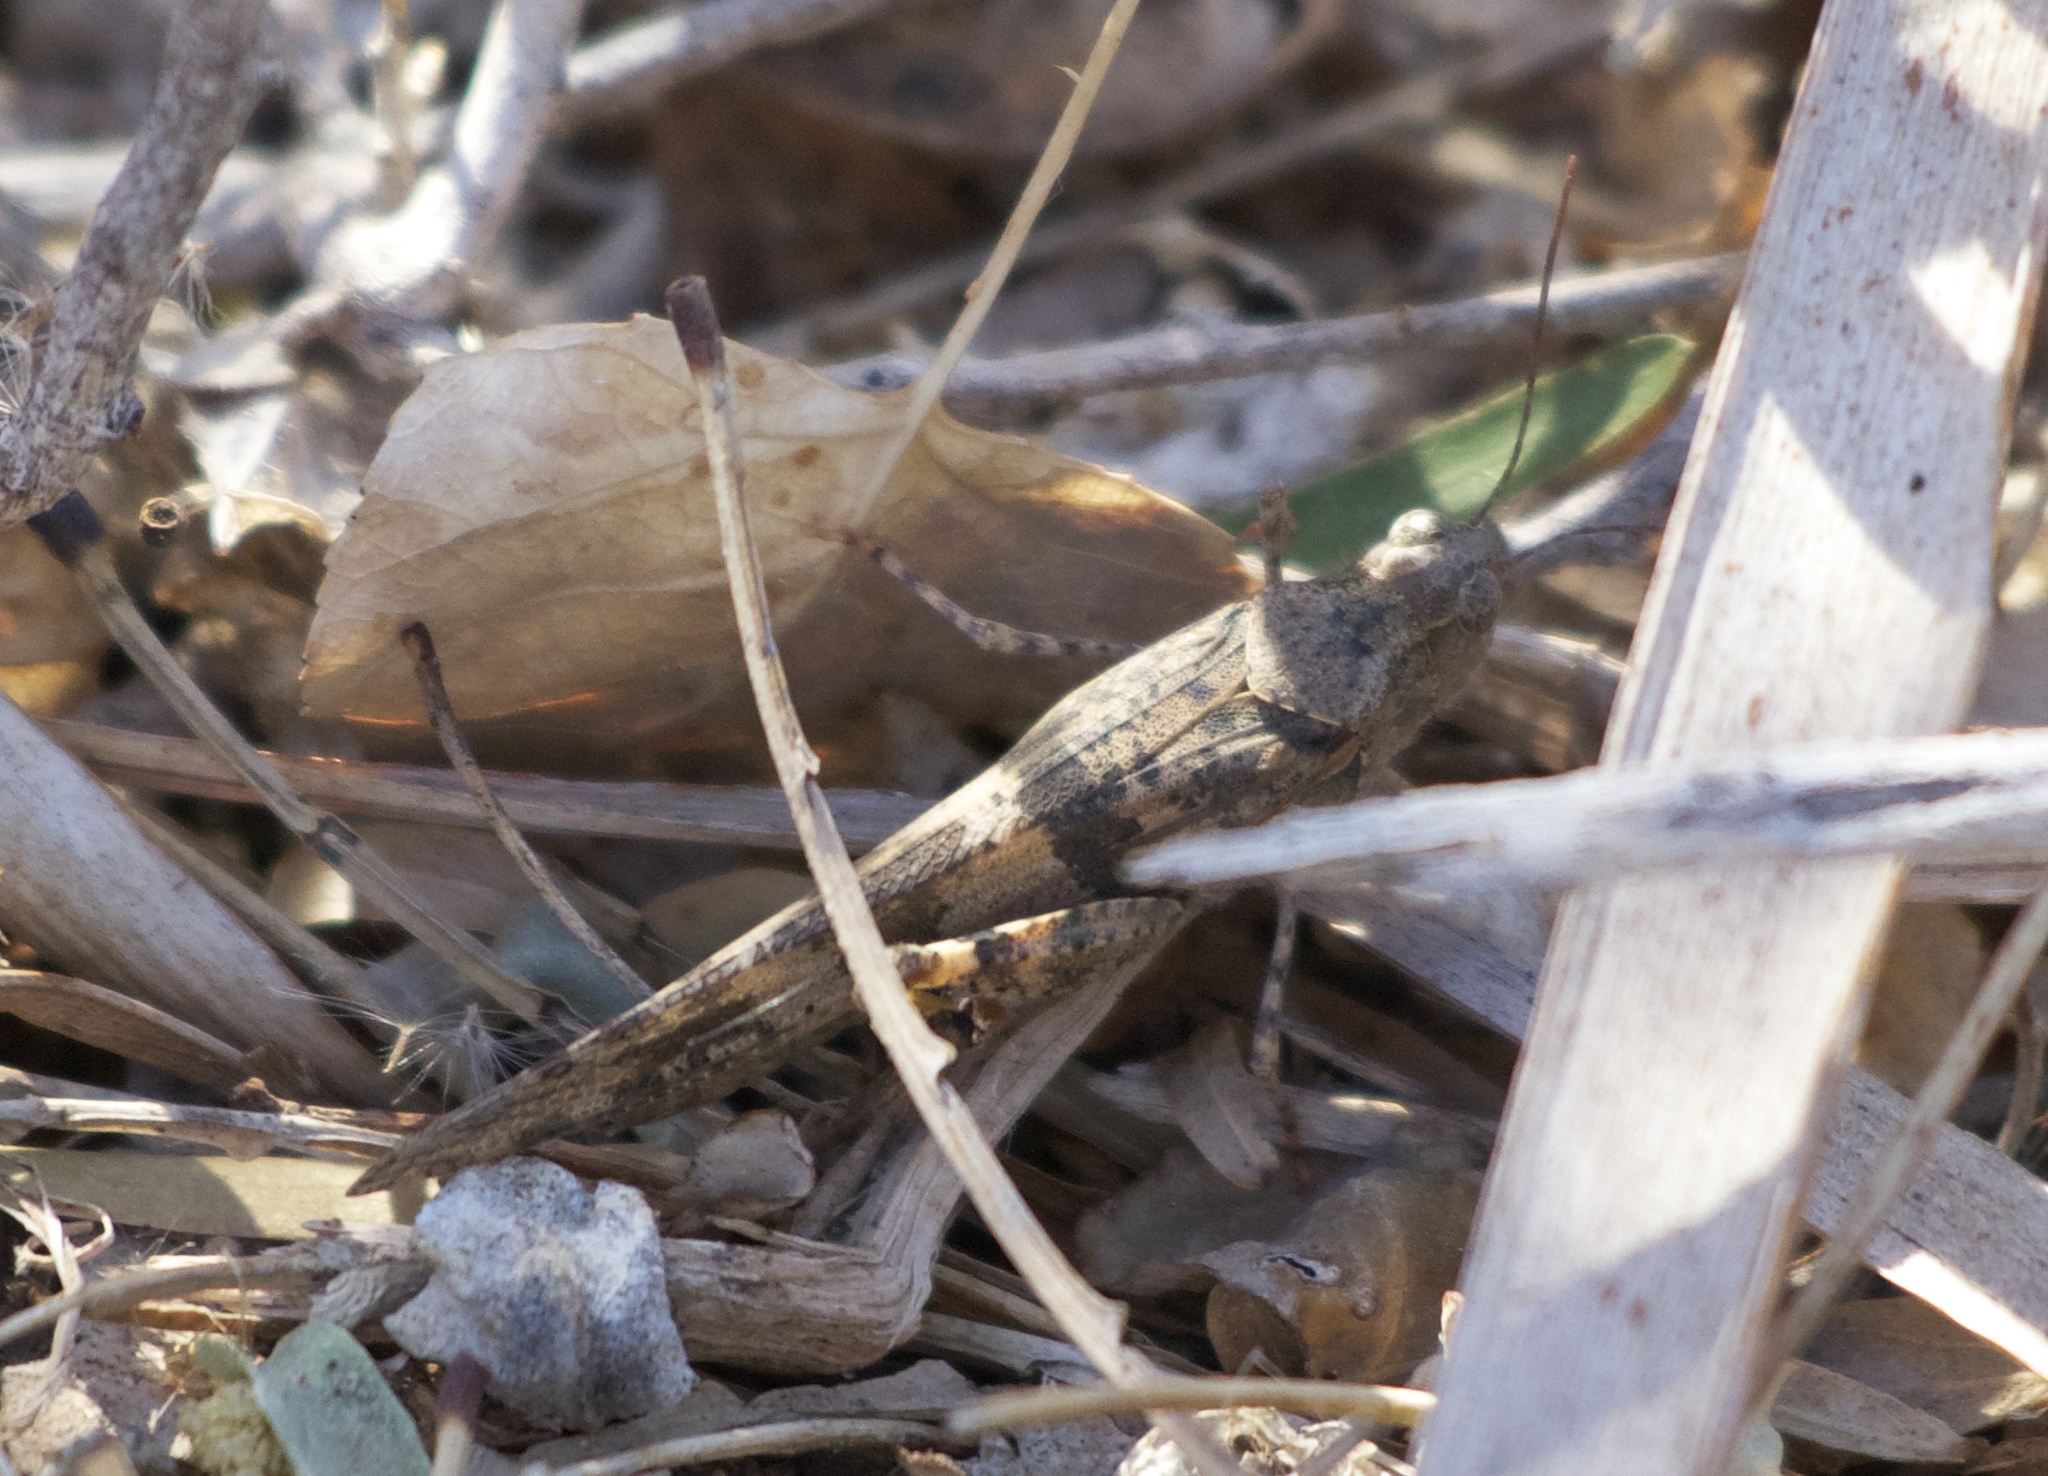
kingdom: Animalia
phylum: Arthropoda
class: Insecta
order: Orthoptera
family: Acrididae
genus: Trimerotropis
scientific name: Trimerotropis pallidipennis
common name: Pallid-winged grasshopper
